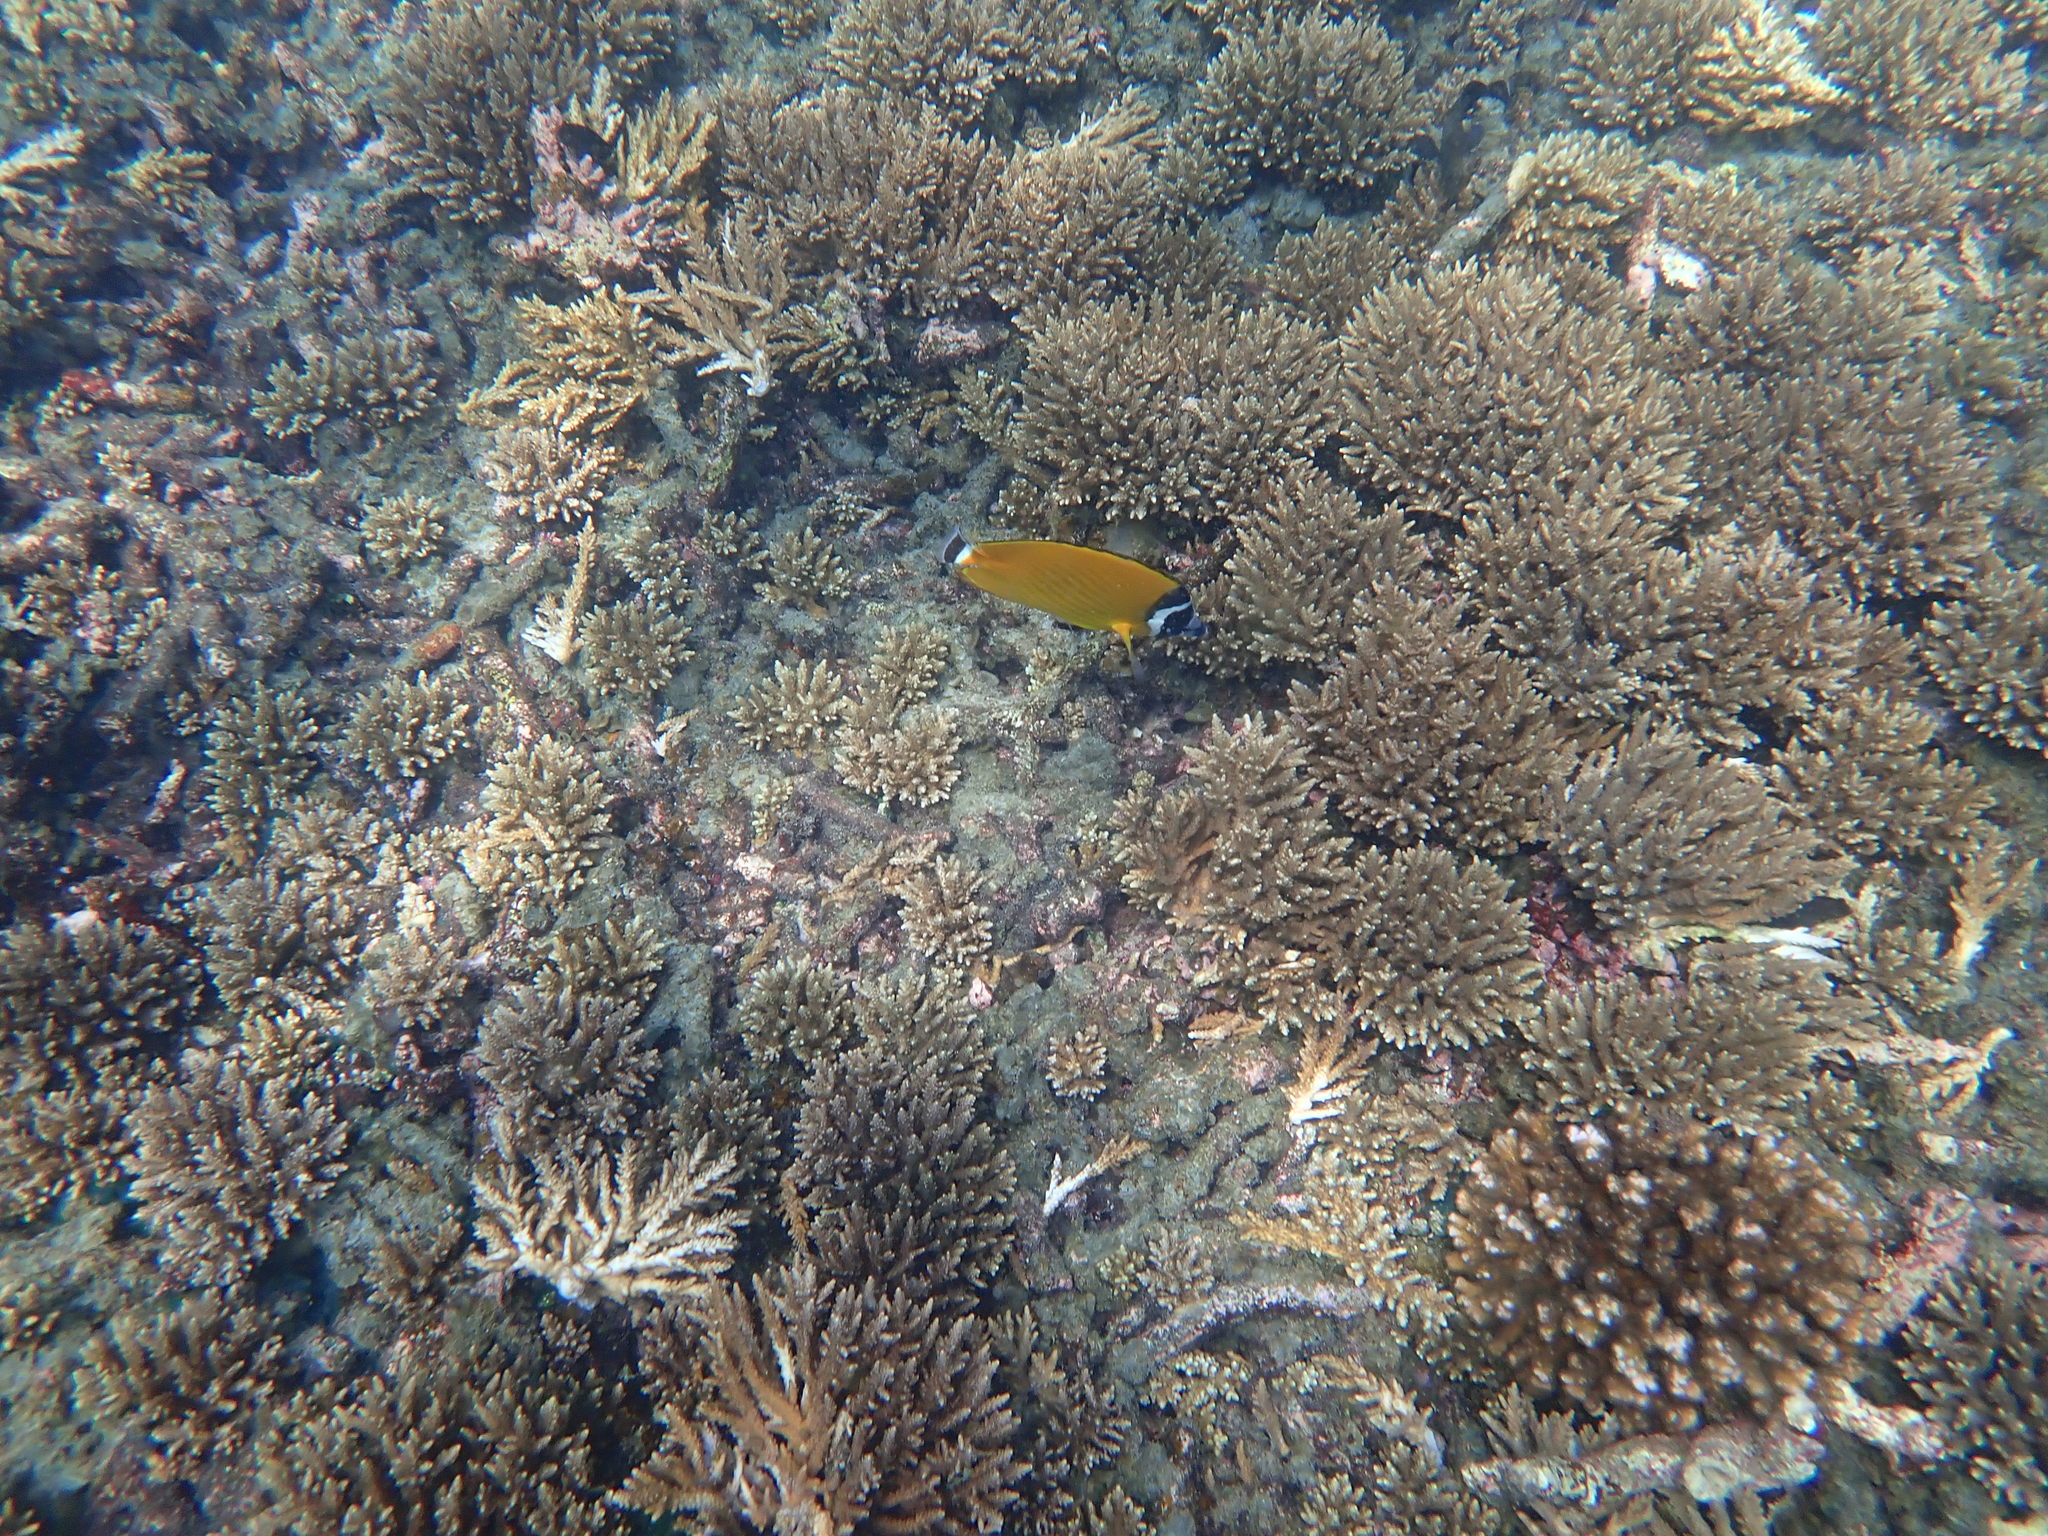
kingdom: Animalia
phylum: Chordata
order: Perciformes
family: Chaetodontidae
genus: Chaetodon
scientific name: Chaetodon wiebeli
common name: Butterflyfish
